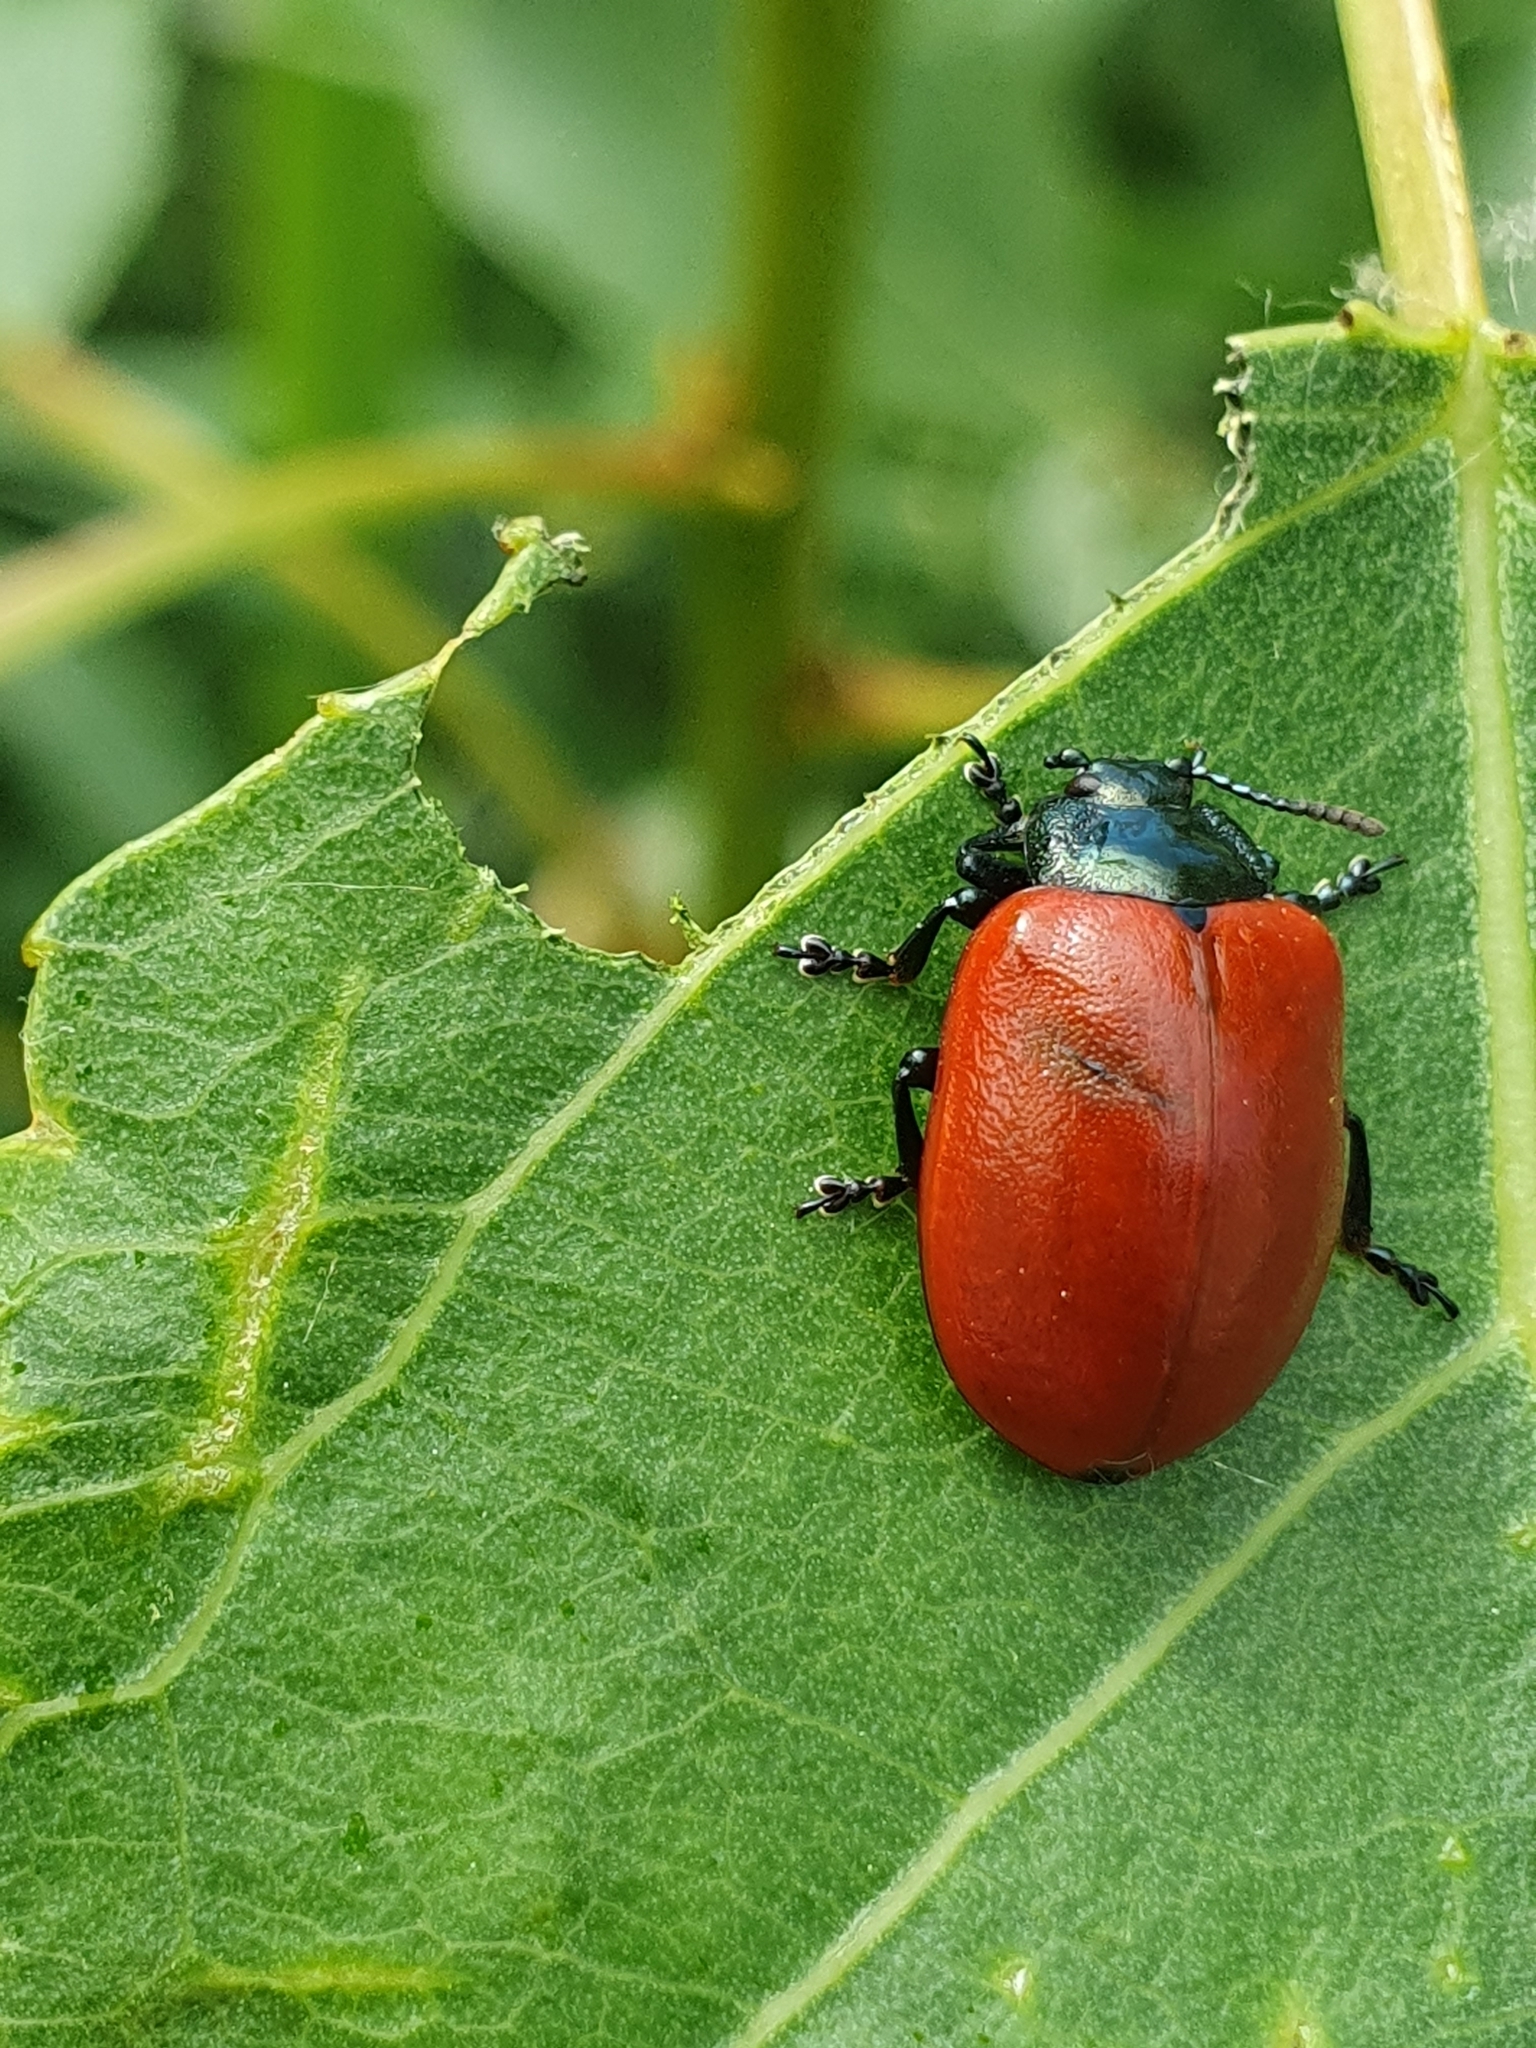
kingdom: Animalia
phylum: Arthropoda
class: Insecta
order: Coleoptera
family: Chrysomelidae
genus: Chrysomela
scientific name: Chrysomela populi
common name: Red poplar leaf beetle
